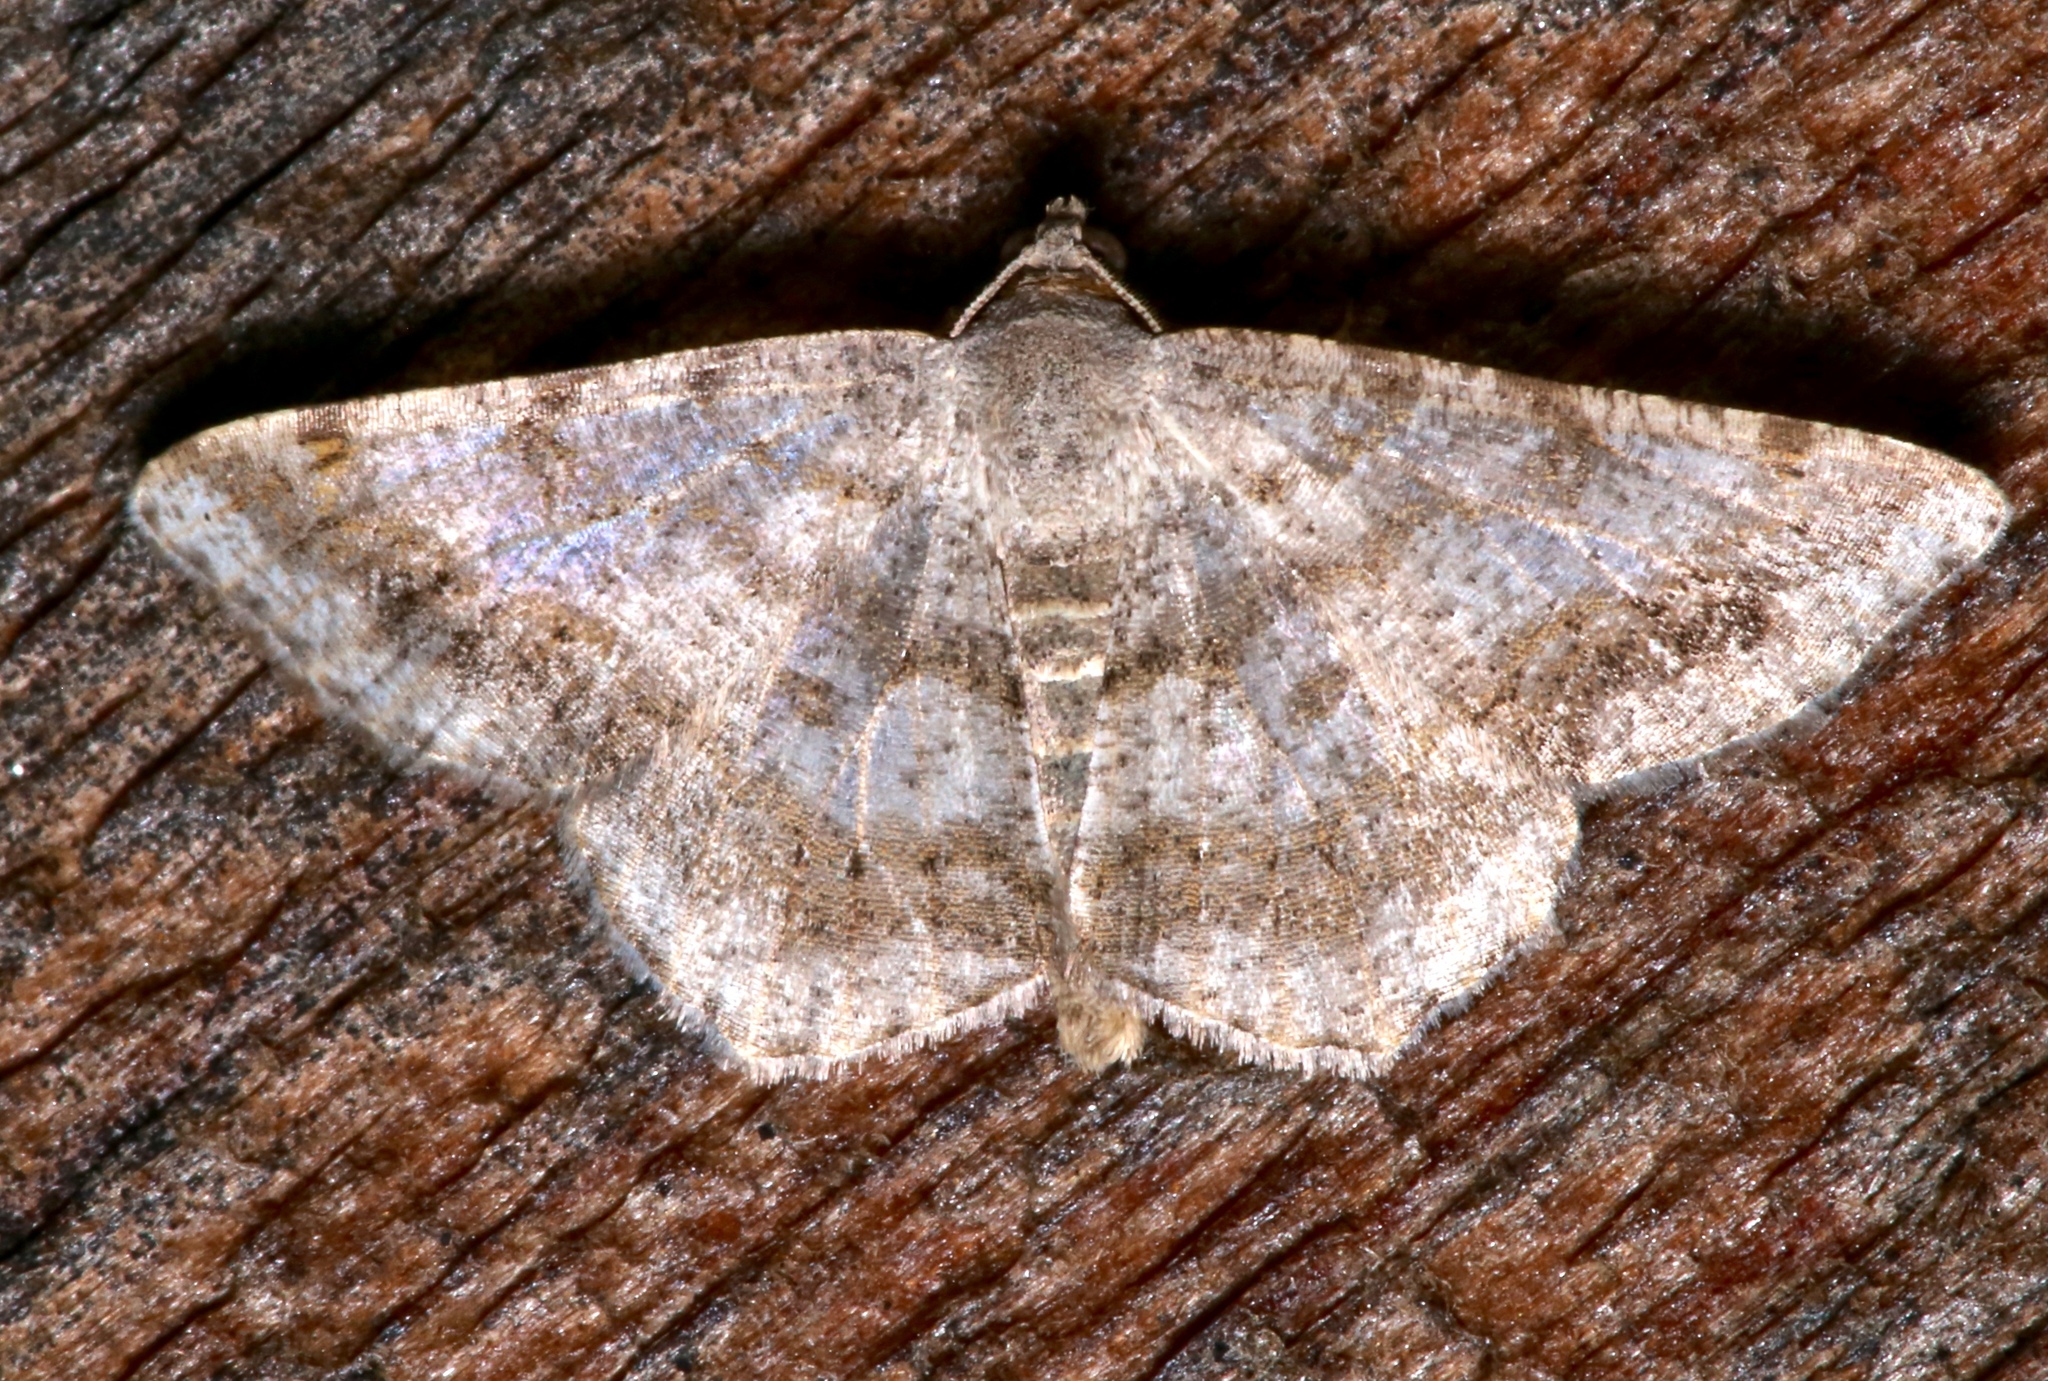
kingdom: Animalia
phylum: Arthropoda
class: Insecta
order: Lepidoptera
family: Geometridae
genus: Digrammia
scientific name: Digrammia ocellinata
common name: Faint-spotted angle
